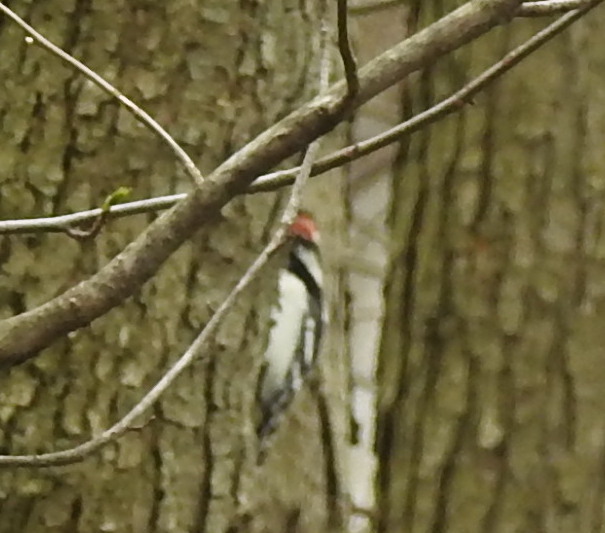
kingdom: Animalia
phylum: Chordata
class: Aves
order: Piciformes
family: Picidae
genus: Dryobates
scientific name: Dryobates pubescens
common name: Downy woodpecker
